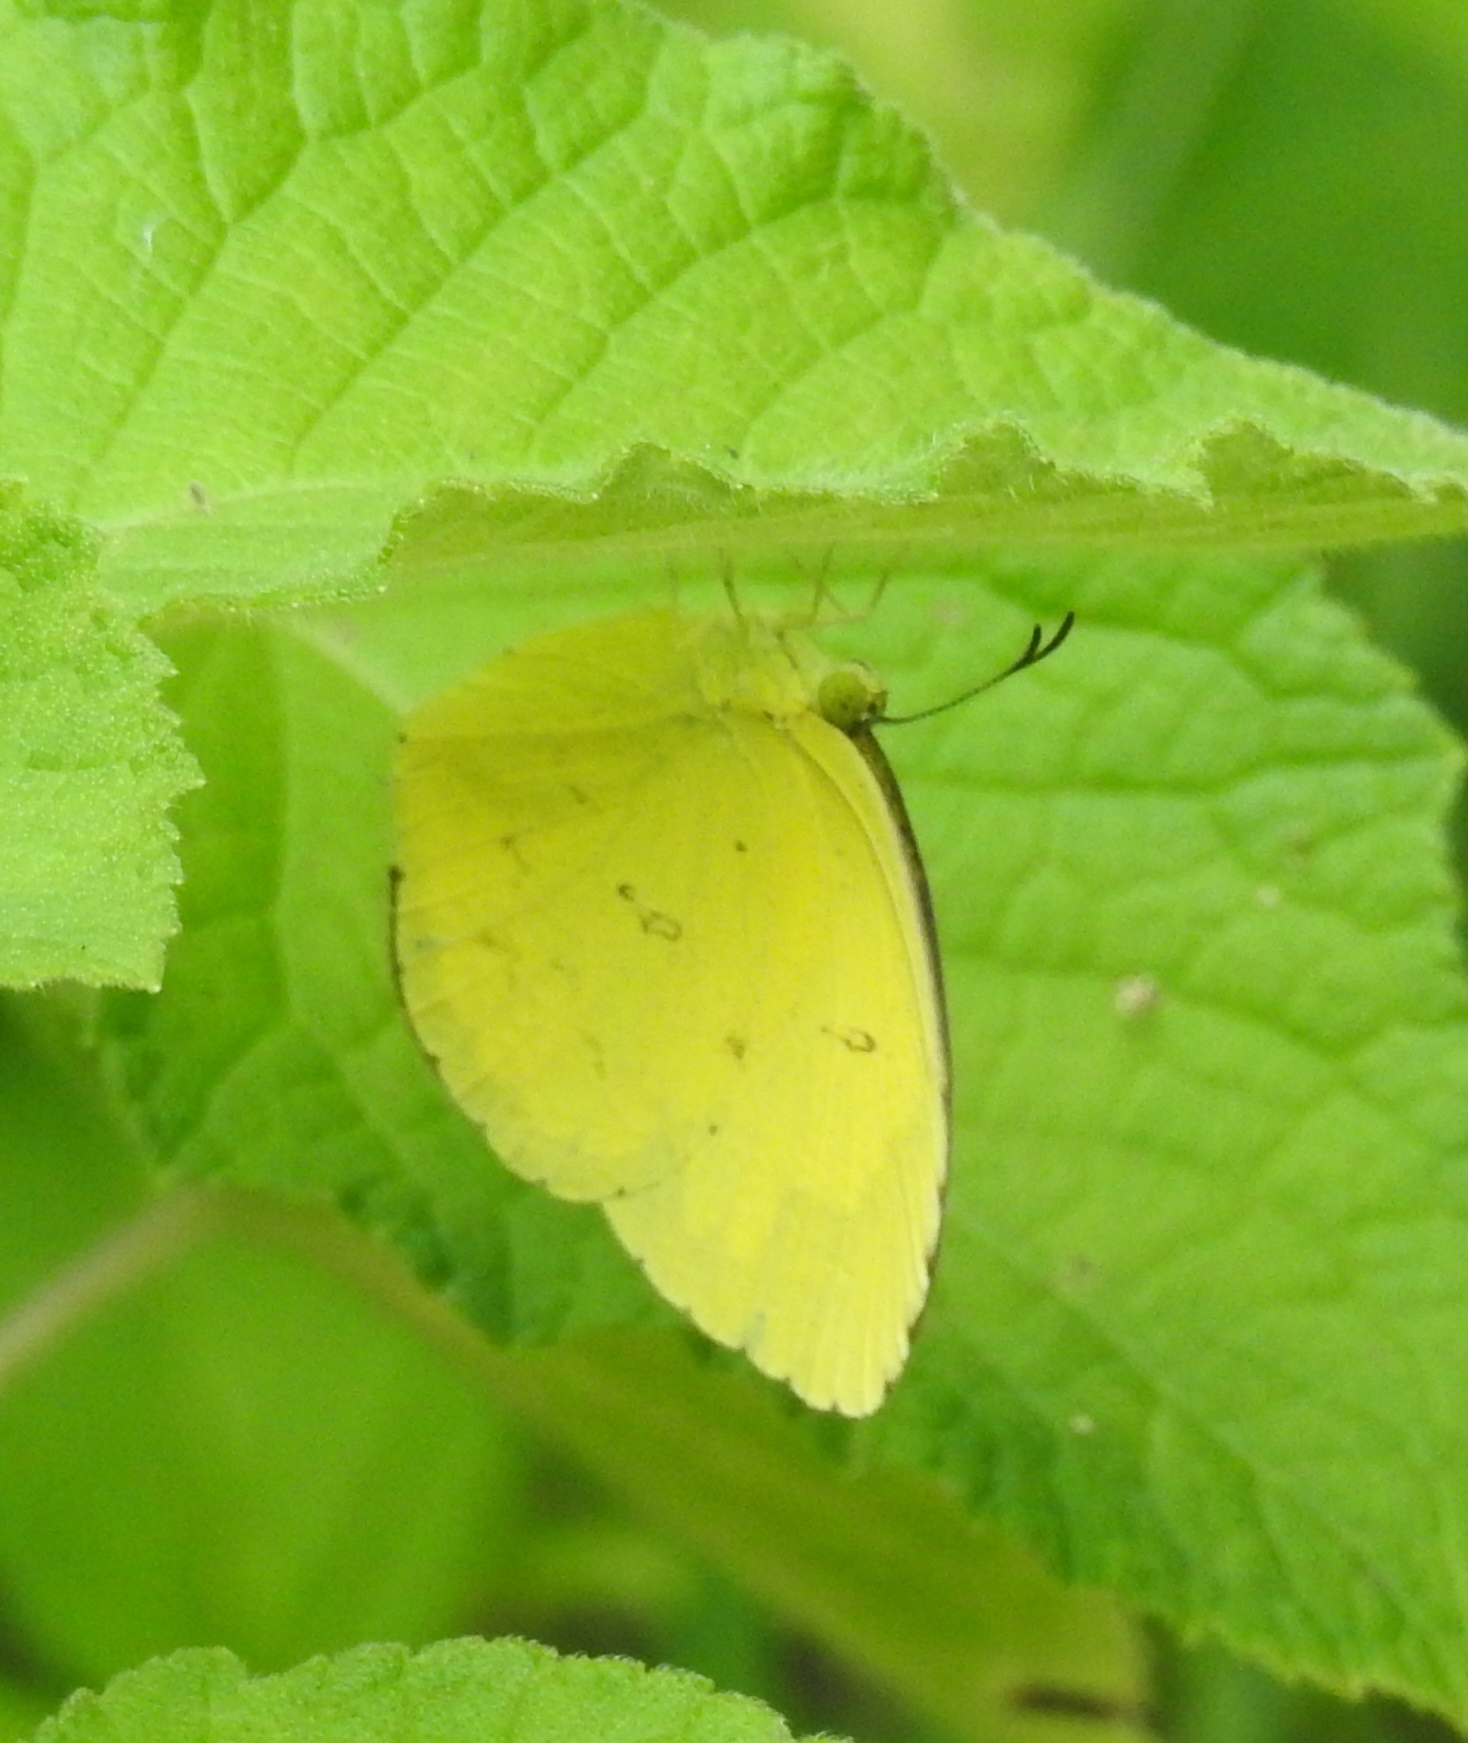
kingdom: Animalia
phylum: Arthropoda
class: Insecta
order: Lepidoptera
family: Pieridae
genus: Eurema
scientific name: Eurema hecabe
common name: Pale grass yellow
